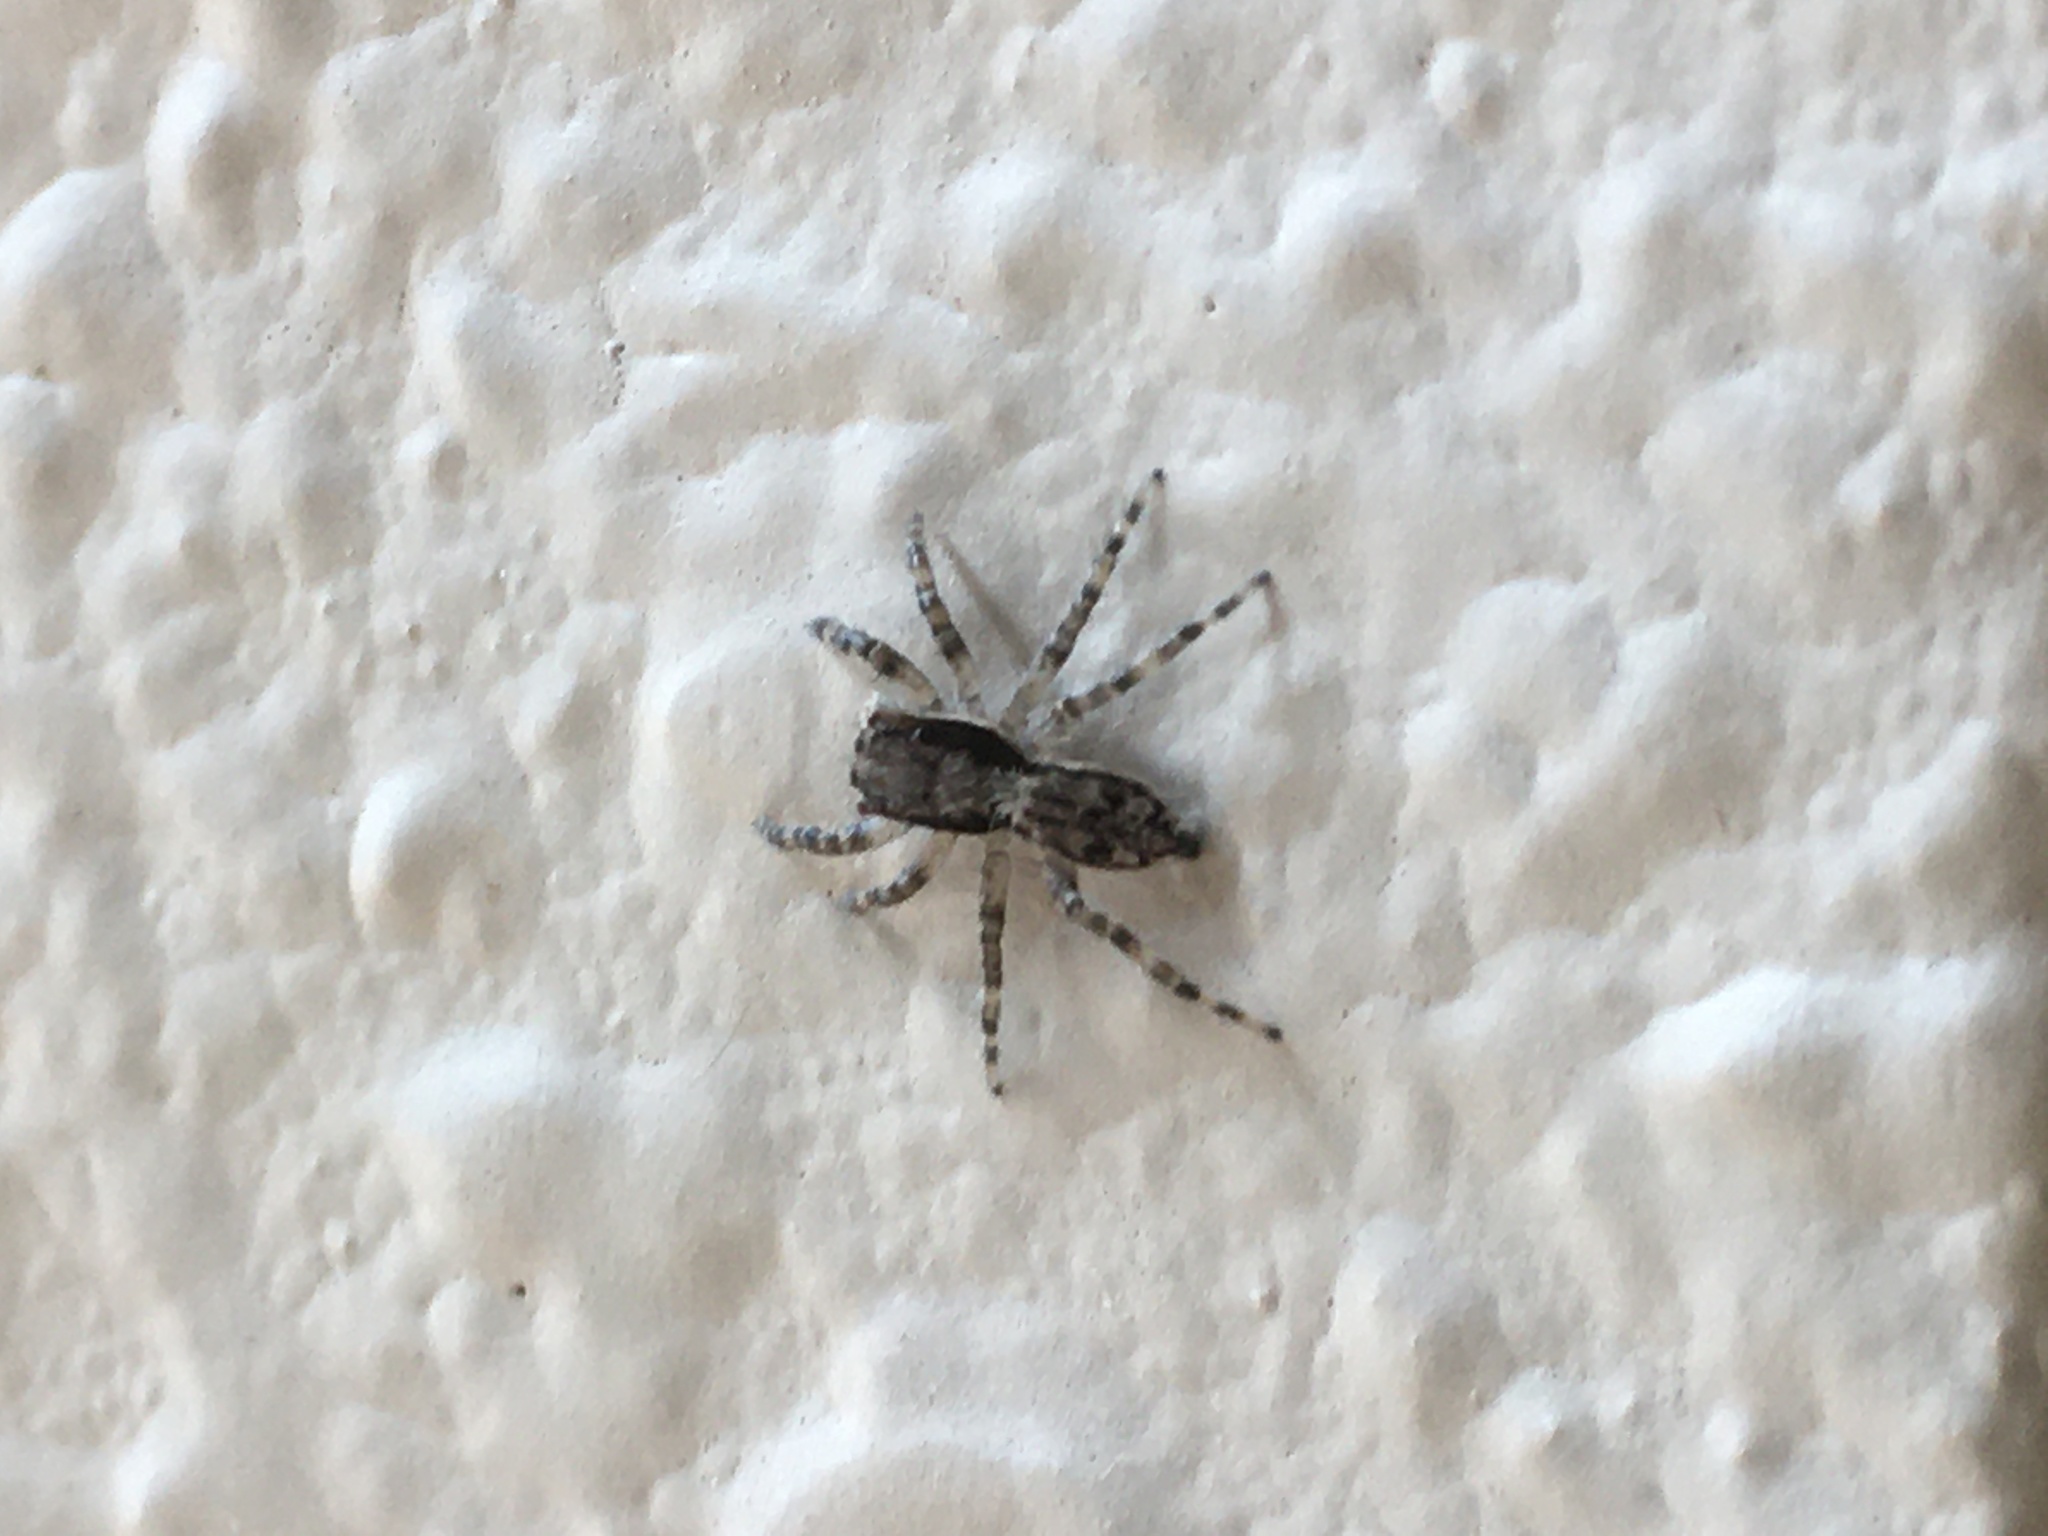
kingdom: Animalia
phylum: Arthropoda
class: Arachnida
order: Araneae
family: Salticidae
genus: Menemerus
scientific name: Menemerus bivittatus
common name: Gray wall jumper
